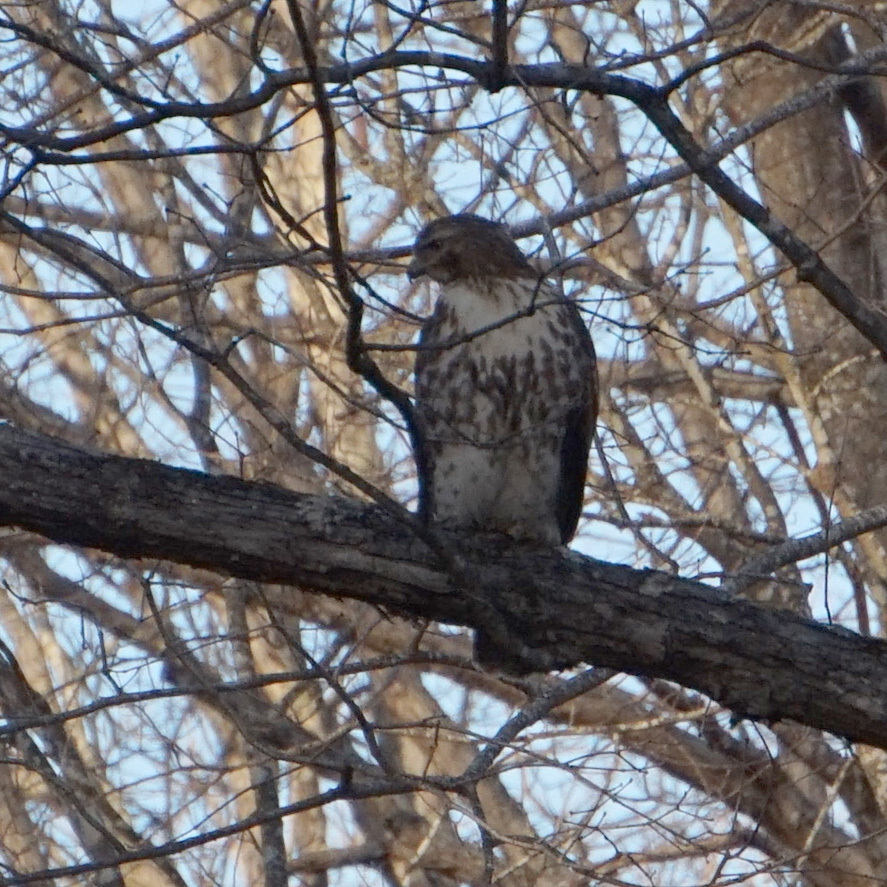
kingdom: Animalia
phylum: Chordata
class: Aves
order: Accipitriformes
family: Accipitridae
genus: Buteo
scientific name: Buteo jamaicensis
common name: Red-tailed hawk
